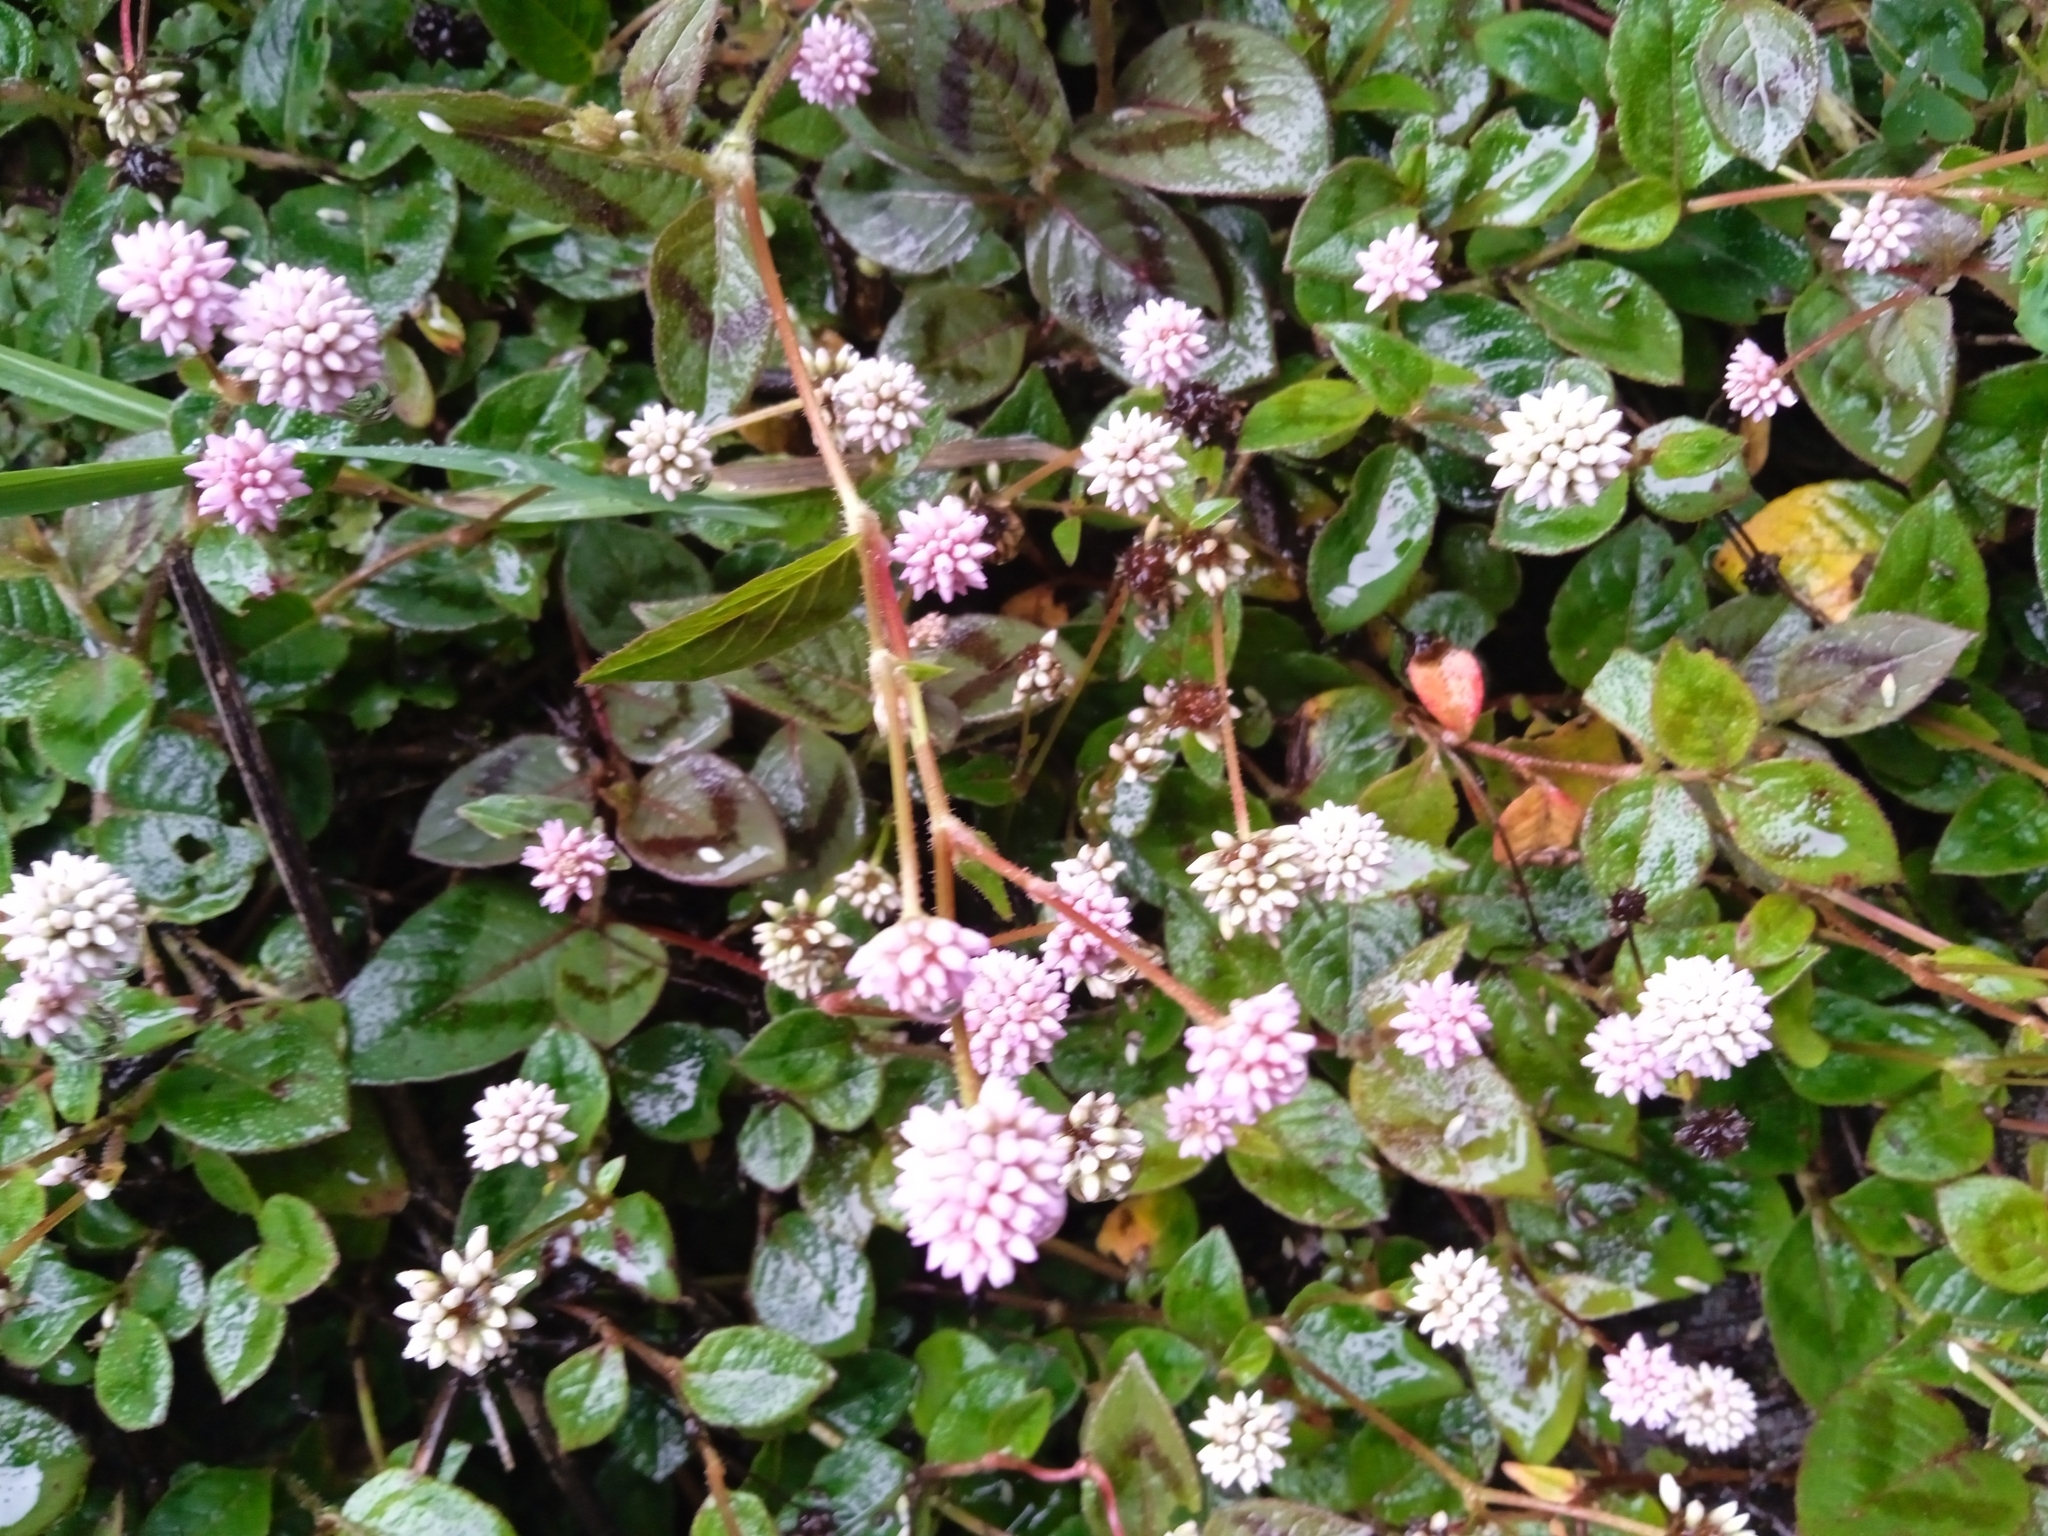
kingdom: Plantae
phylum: Tracheophyta
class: Magnoliopsida
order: Caryophyllales
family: Polygonaceae
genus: Persicaria
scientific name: Persicaria capitata
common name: Pinkhead smartweed
